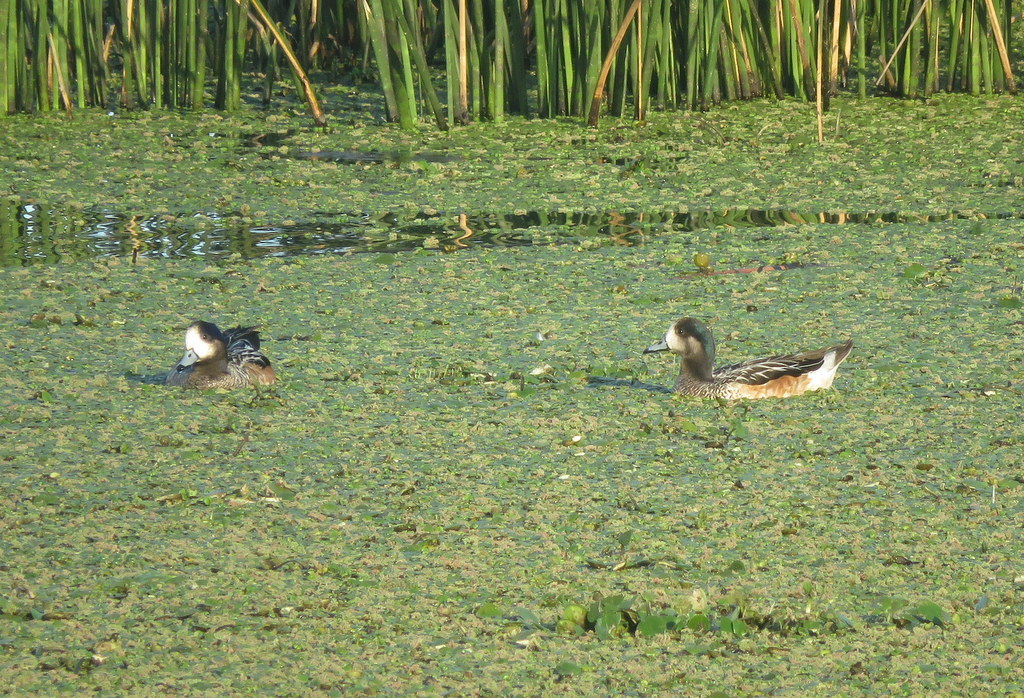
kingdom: Animalia
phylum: Chordata
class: Aves
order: Anseriformes
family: Anatidae
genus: Mareca
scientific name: Mareca sibilatrix
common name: Chiloe wigeon
